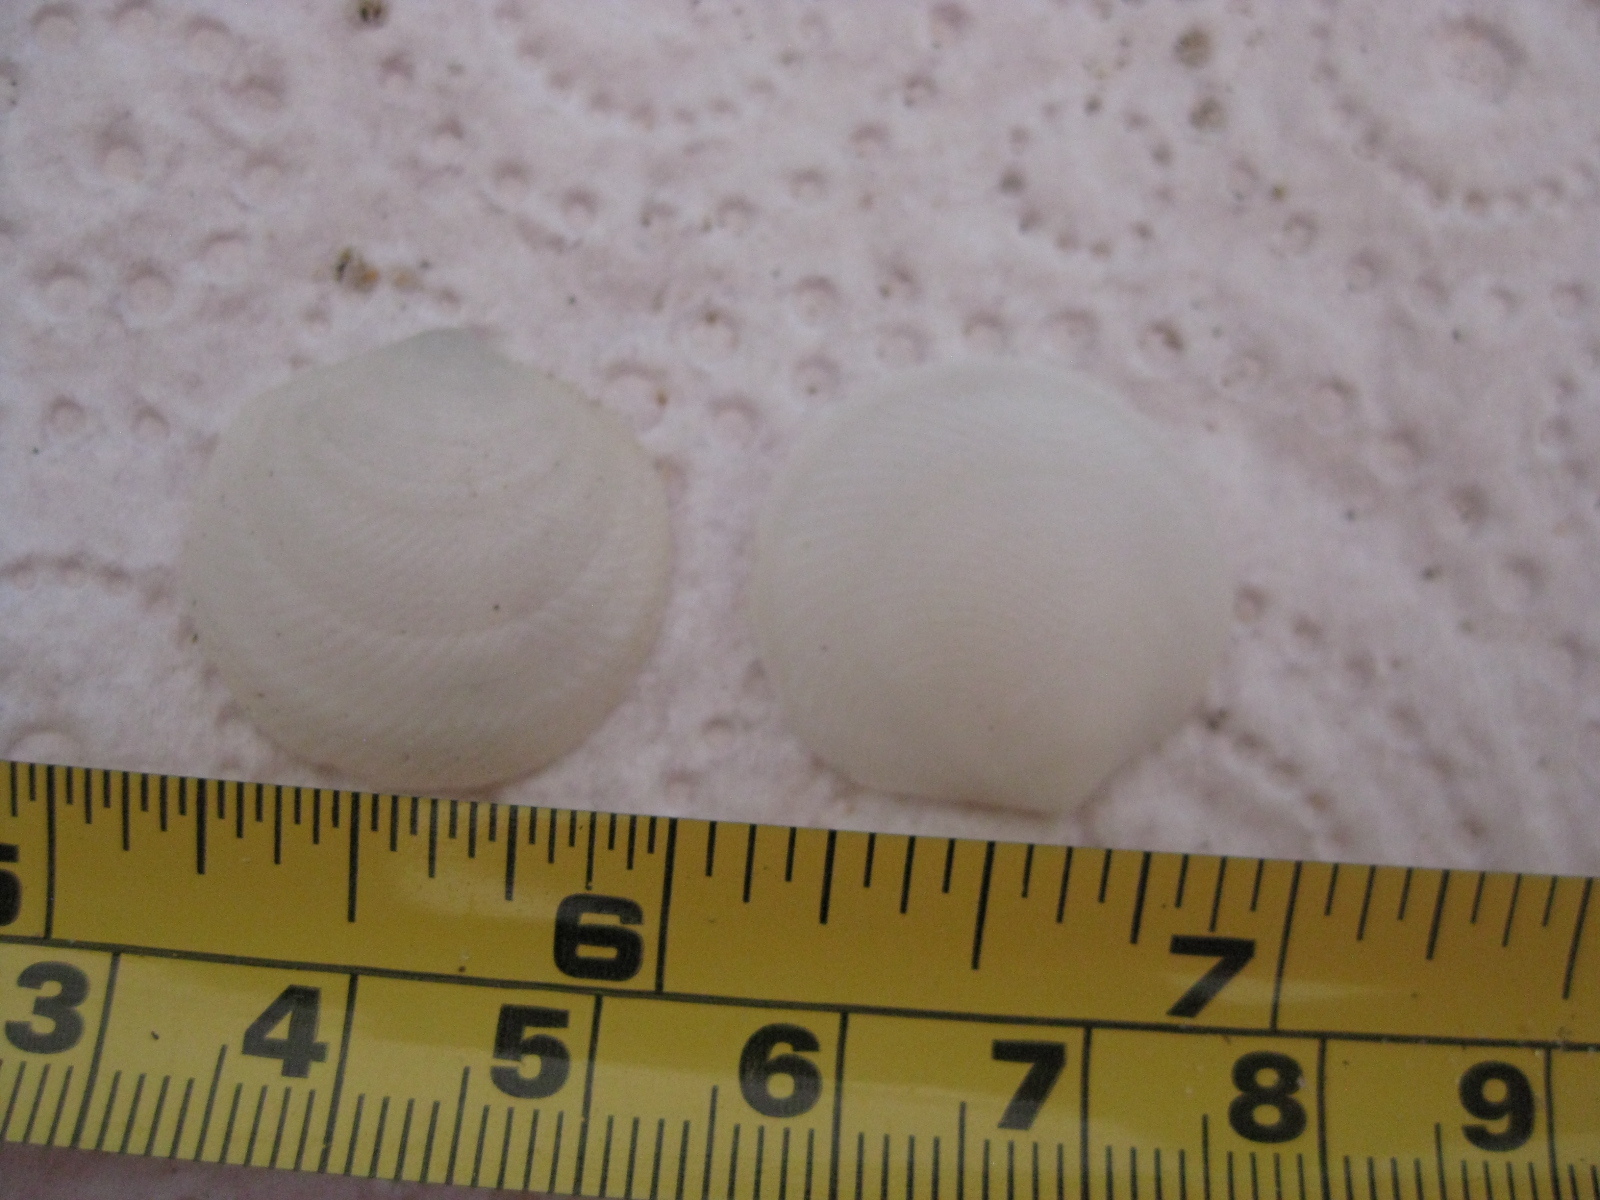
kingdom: Animalia
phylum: Mollusca
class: Bivalvia
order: Lucinida
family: Lucinidae
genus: Divalucina
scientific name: Divalucina cumingi
